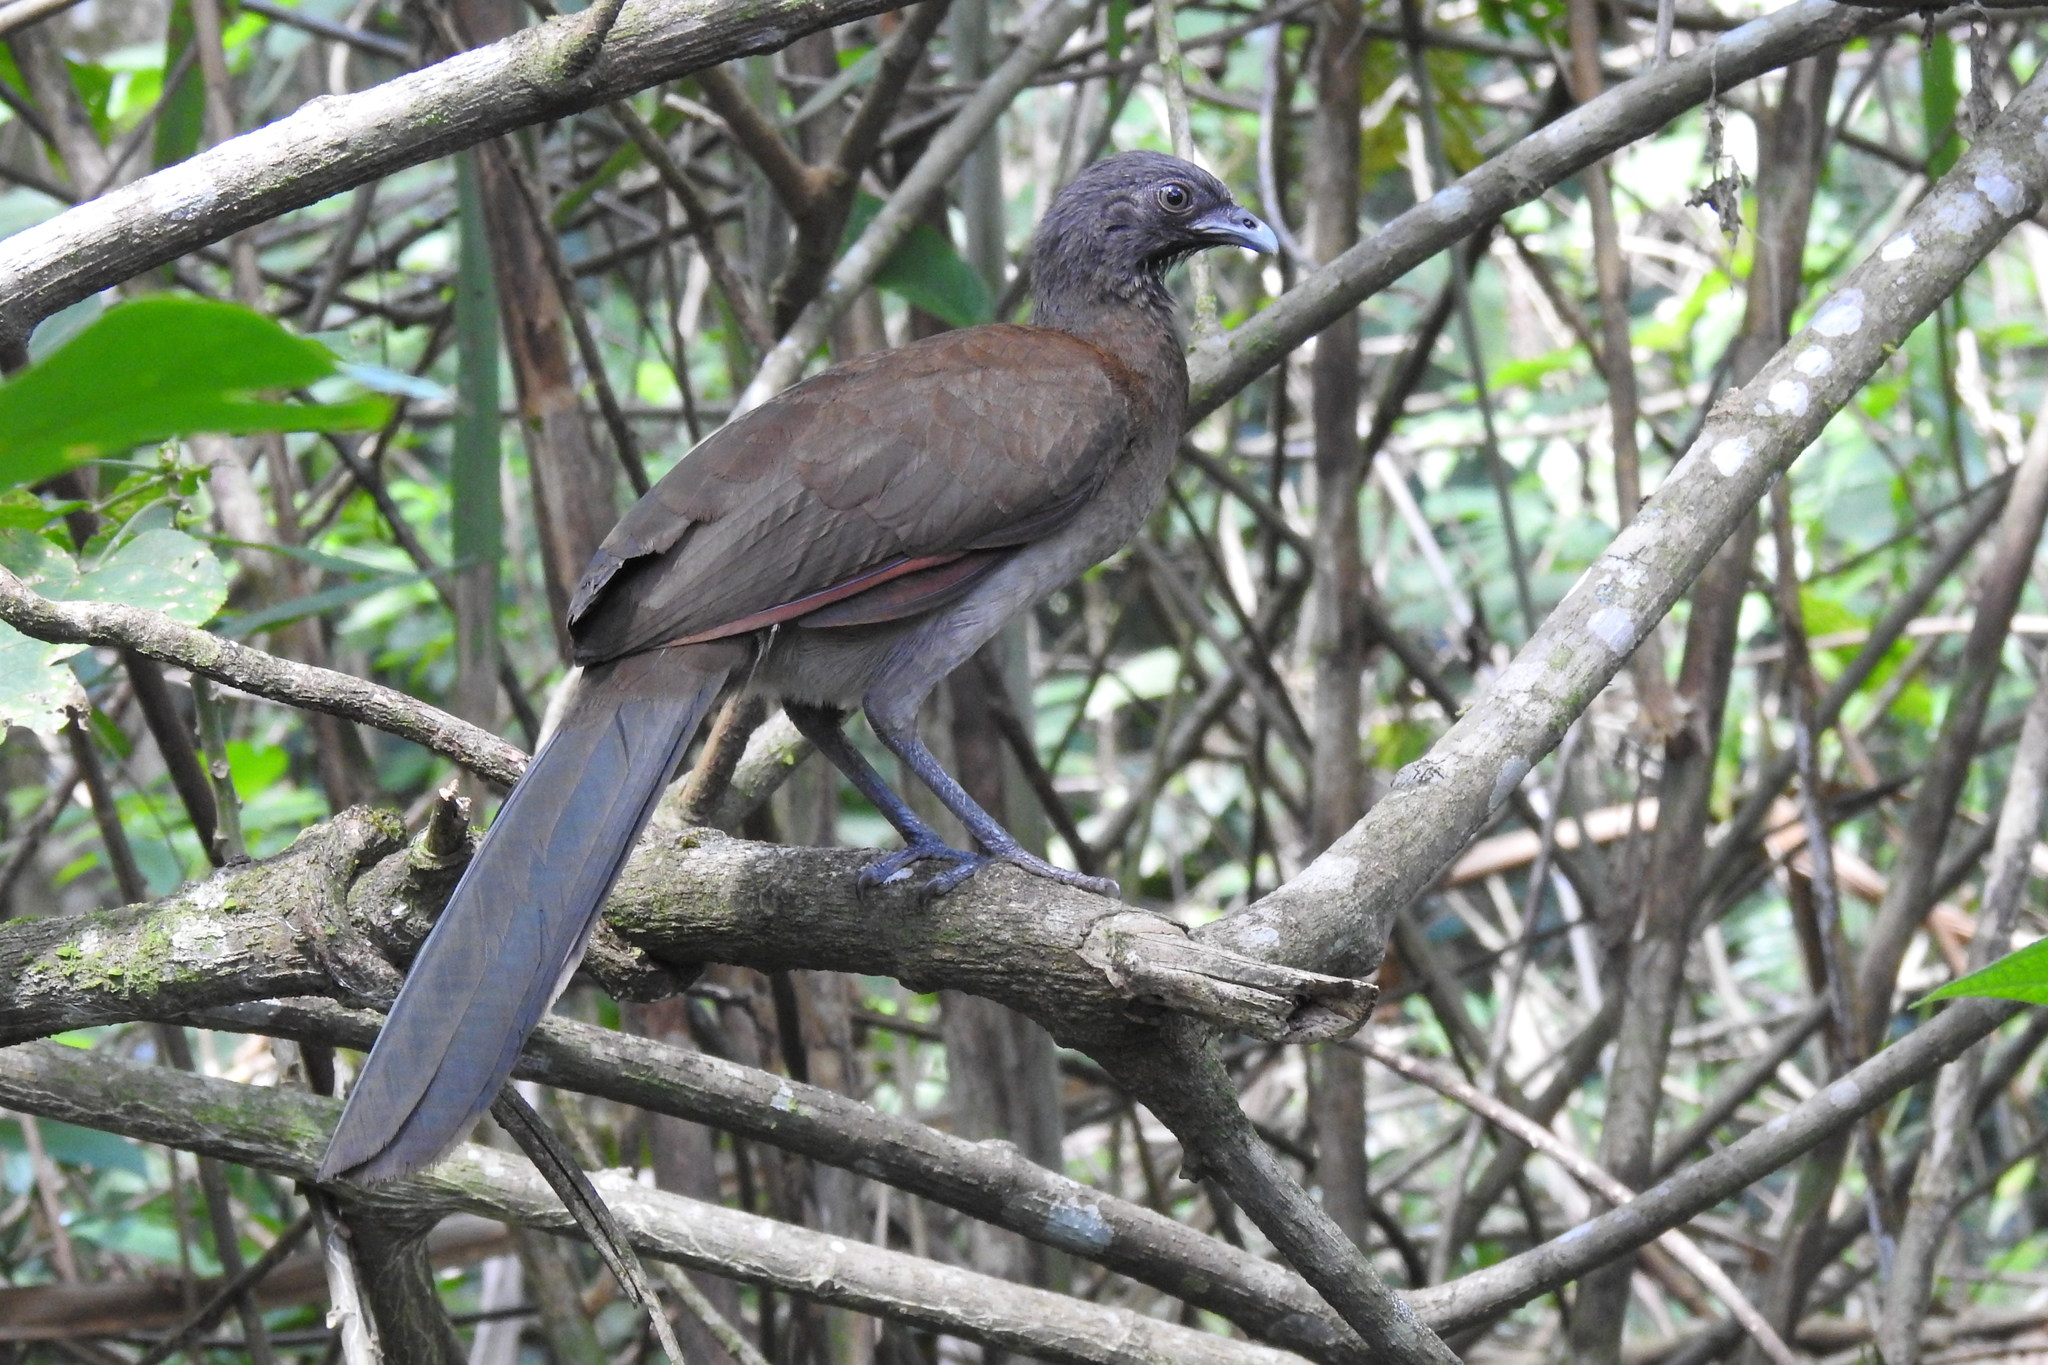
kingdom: Animalia
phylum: Chordata
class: Aves
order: Galliformes
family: Cracidae
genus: Ortalis
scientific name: Ortalis cinereiceps
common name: Grey-headed chachalaca
